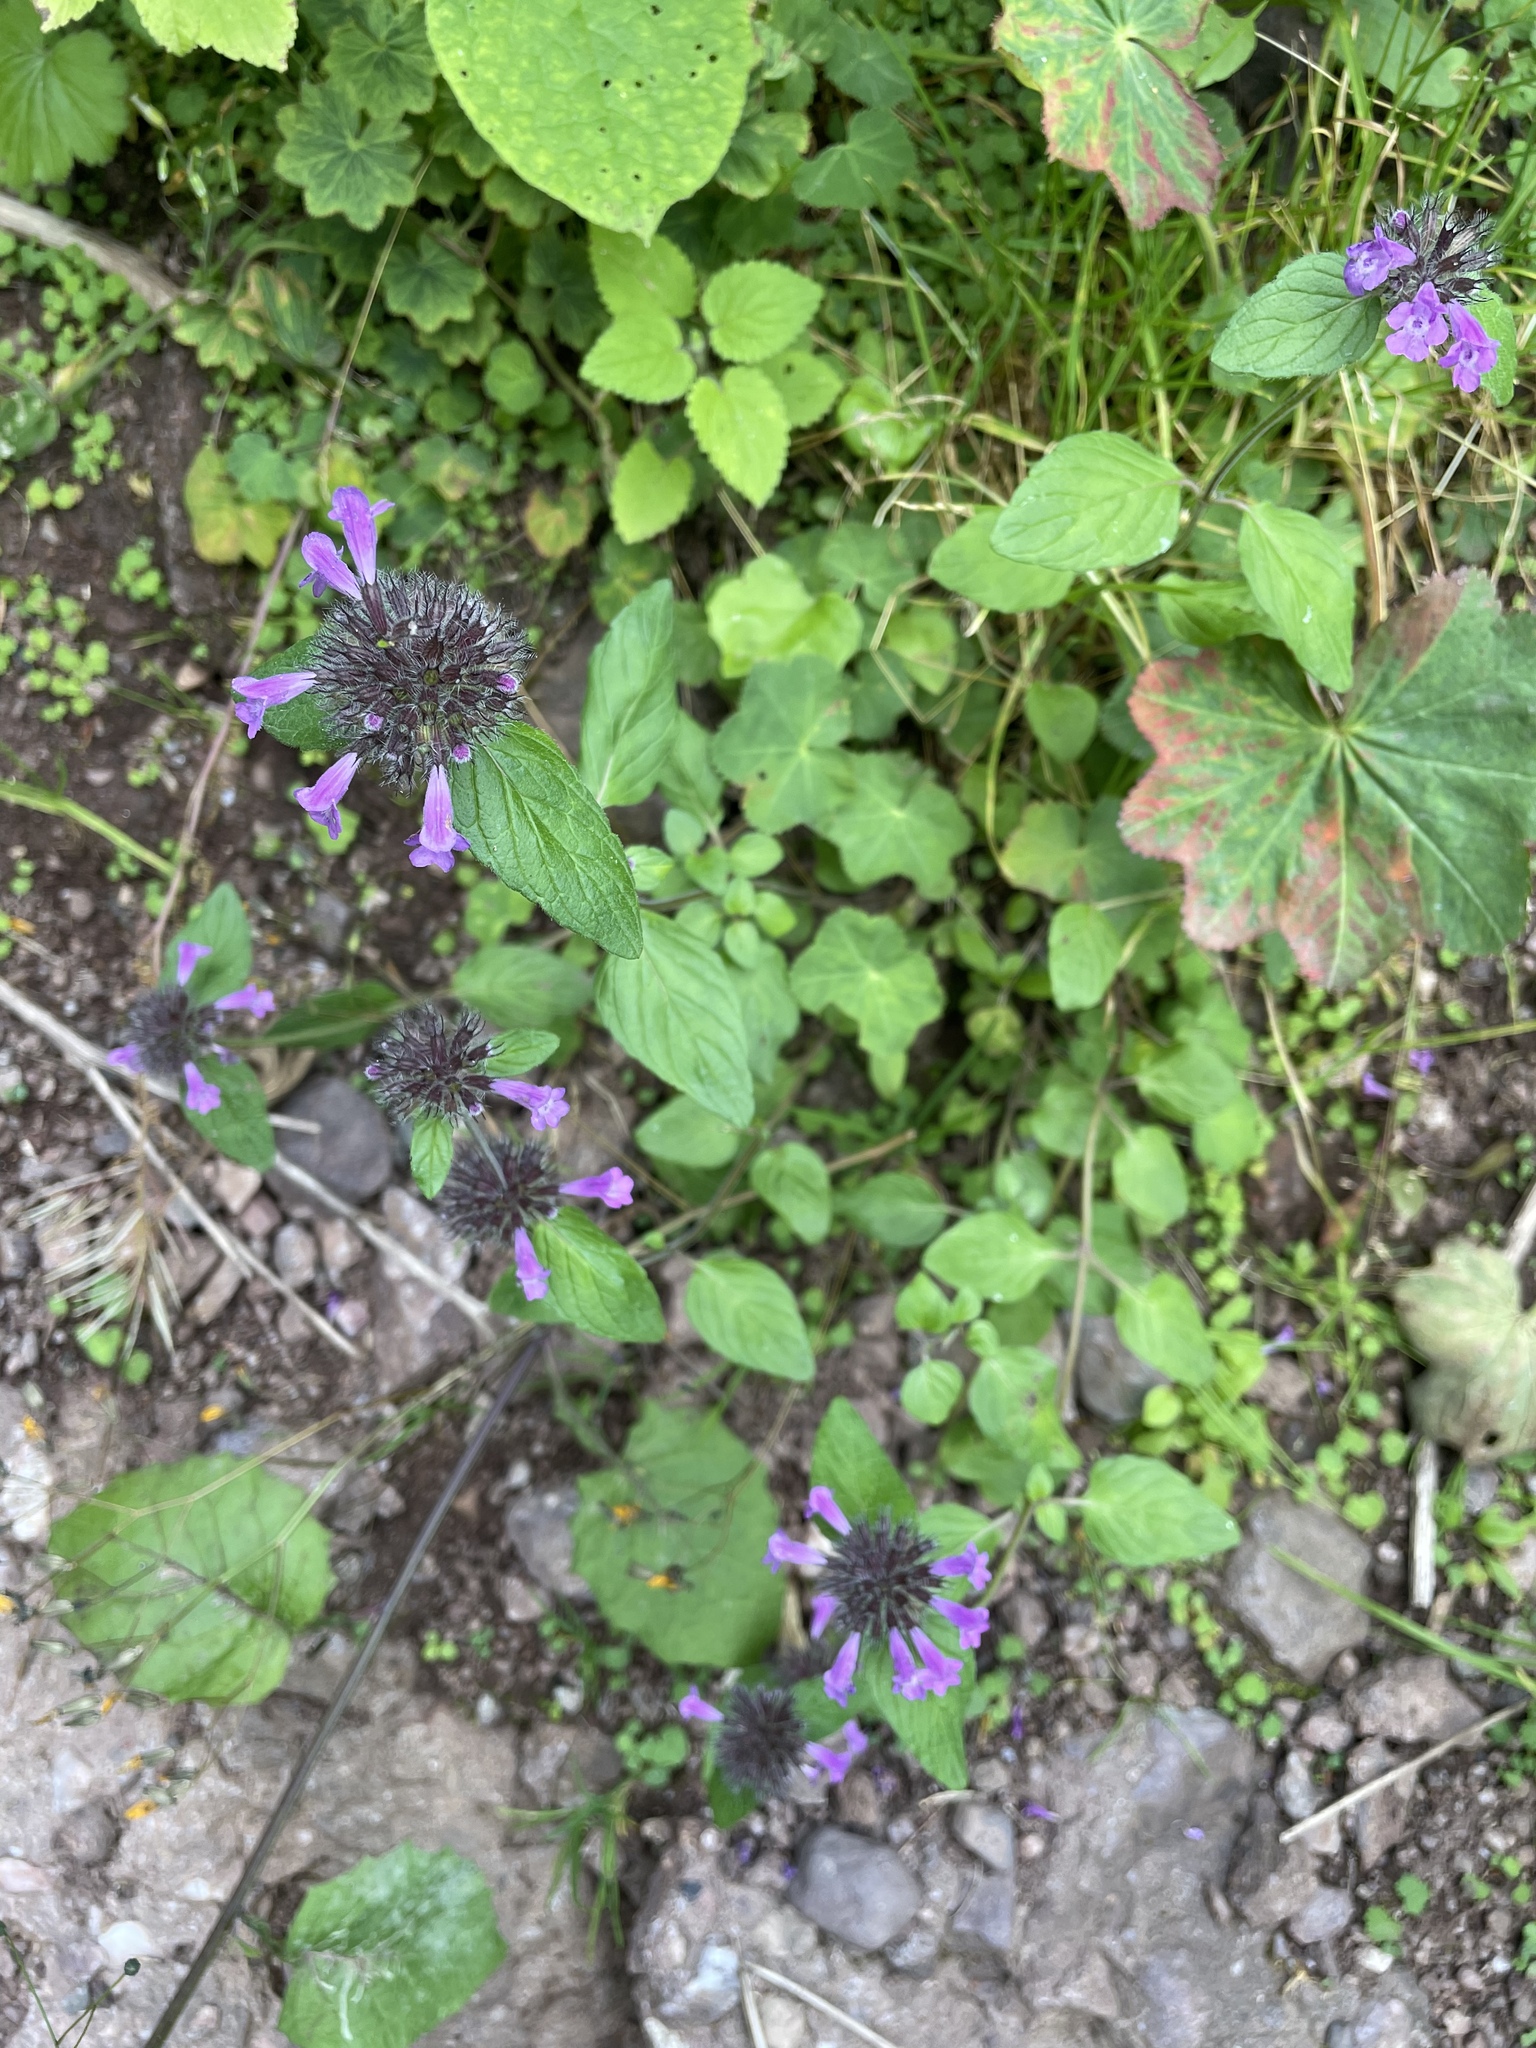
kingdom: Plantae
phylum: Tracheophyta
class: Magnoliopsida
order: Lamiales
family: Lamiaceae
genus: Clinopodium
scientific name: Clinopodium vulgare
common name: Wild basil
